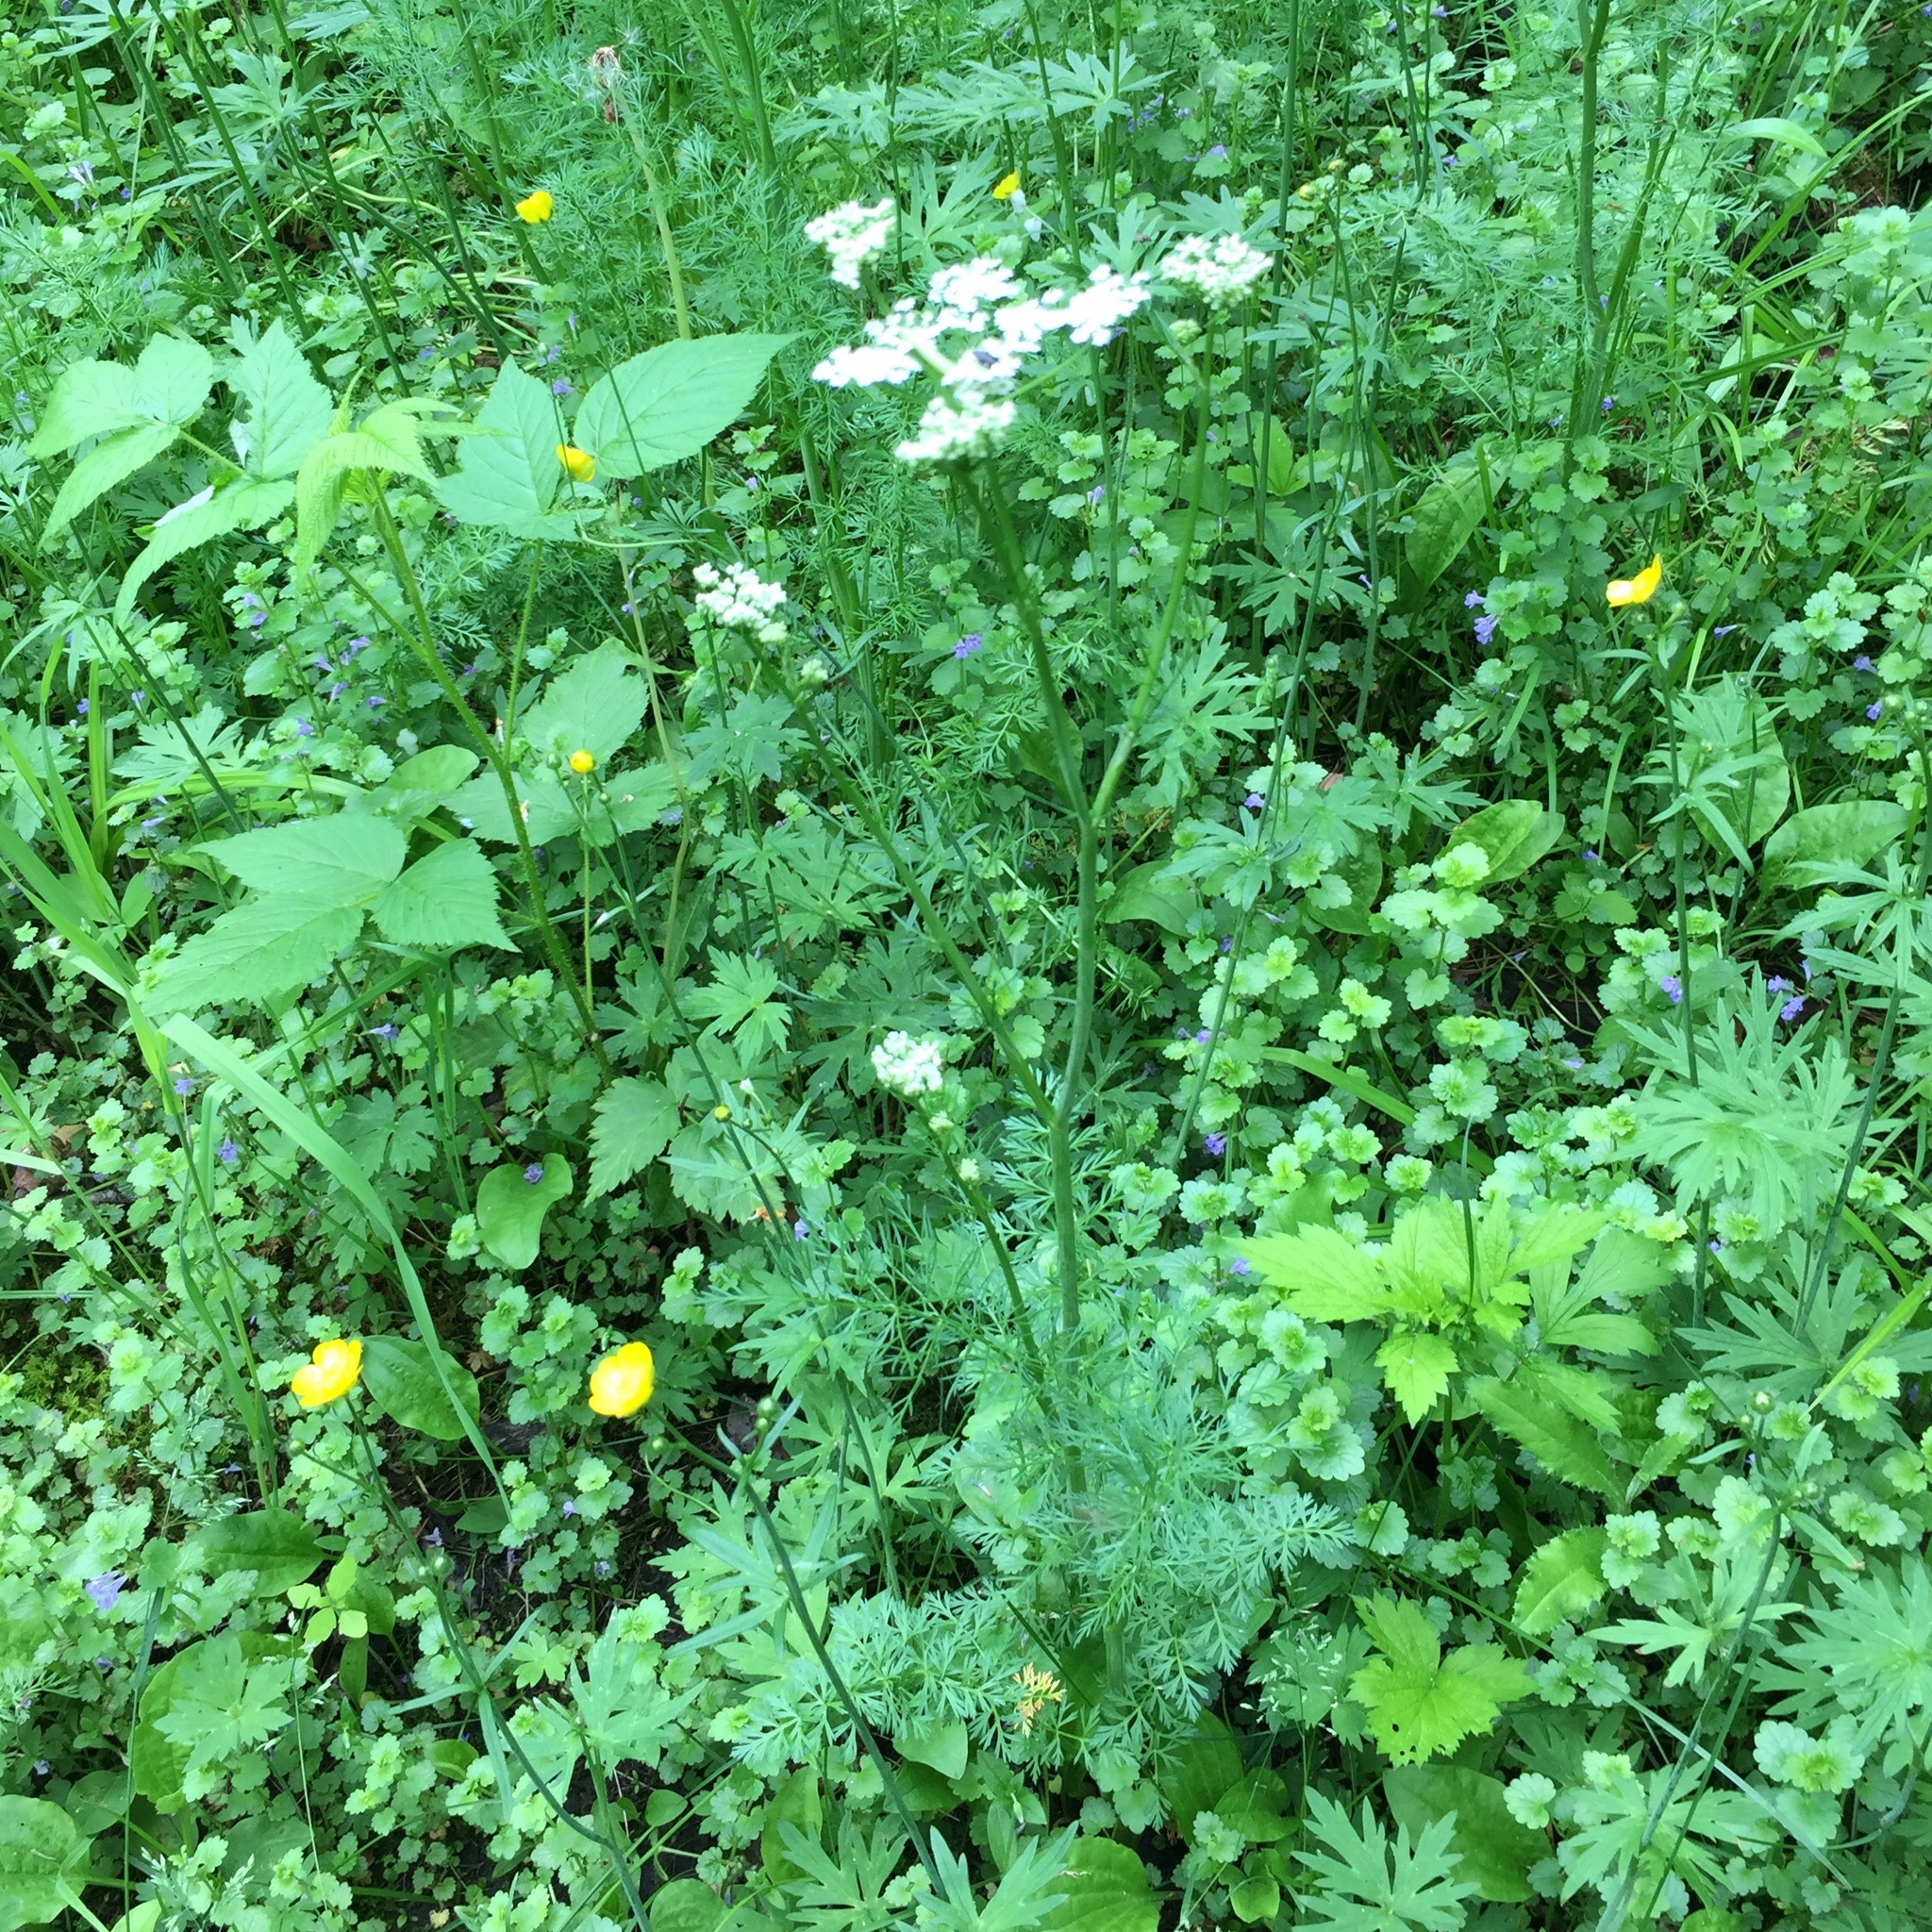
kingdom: Plantae
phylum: Tracheophyta
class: Magnoliopsida
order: Apiales
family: Apiaceae
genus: Carum
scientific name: Carum carvi
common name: Caraway
